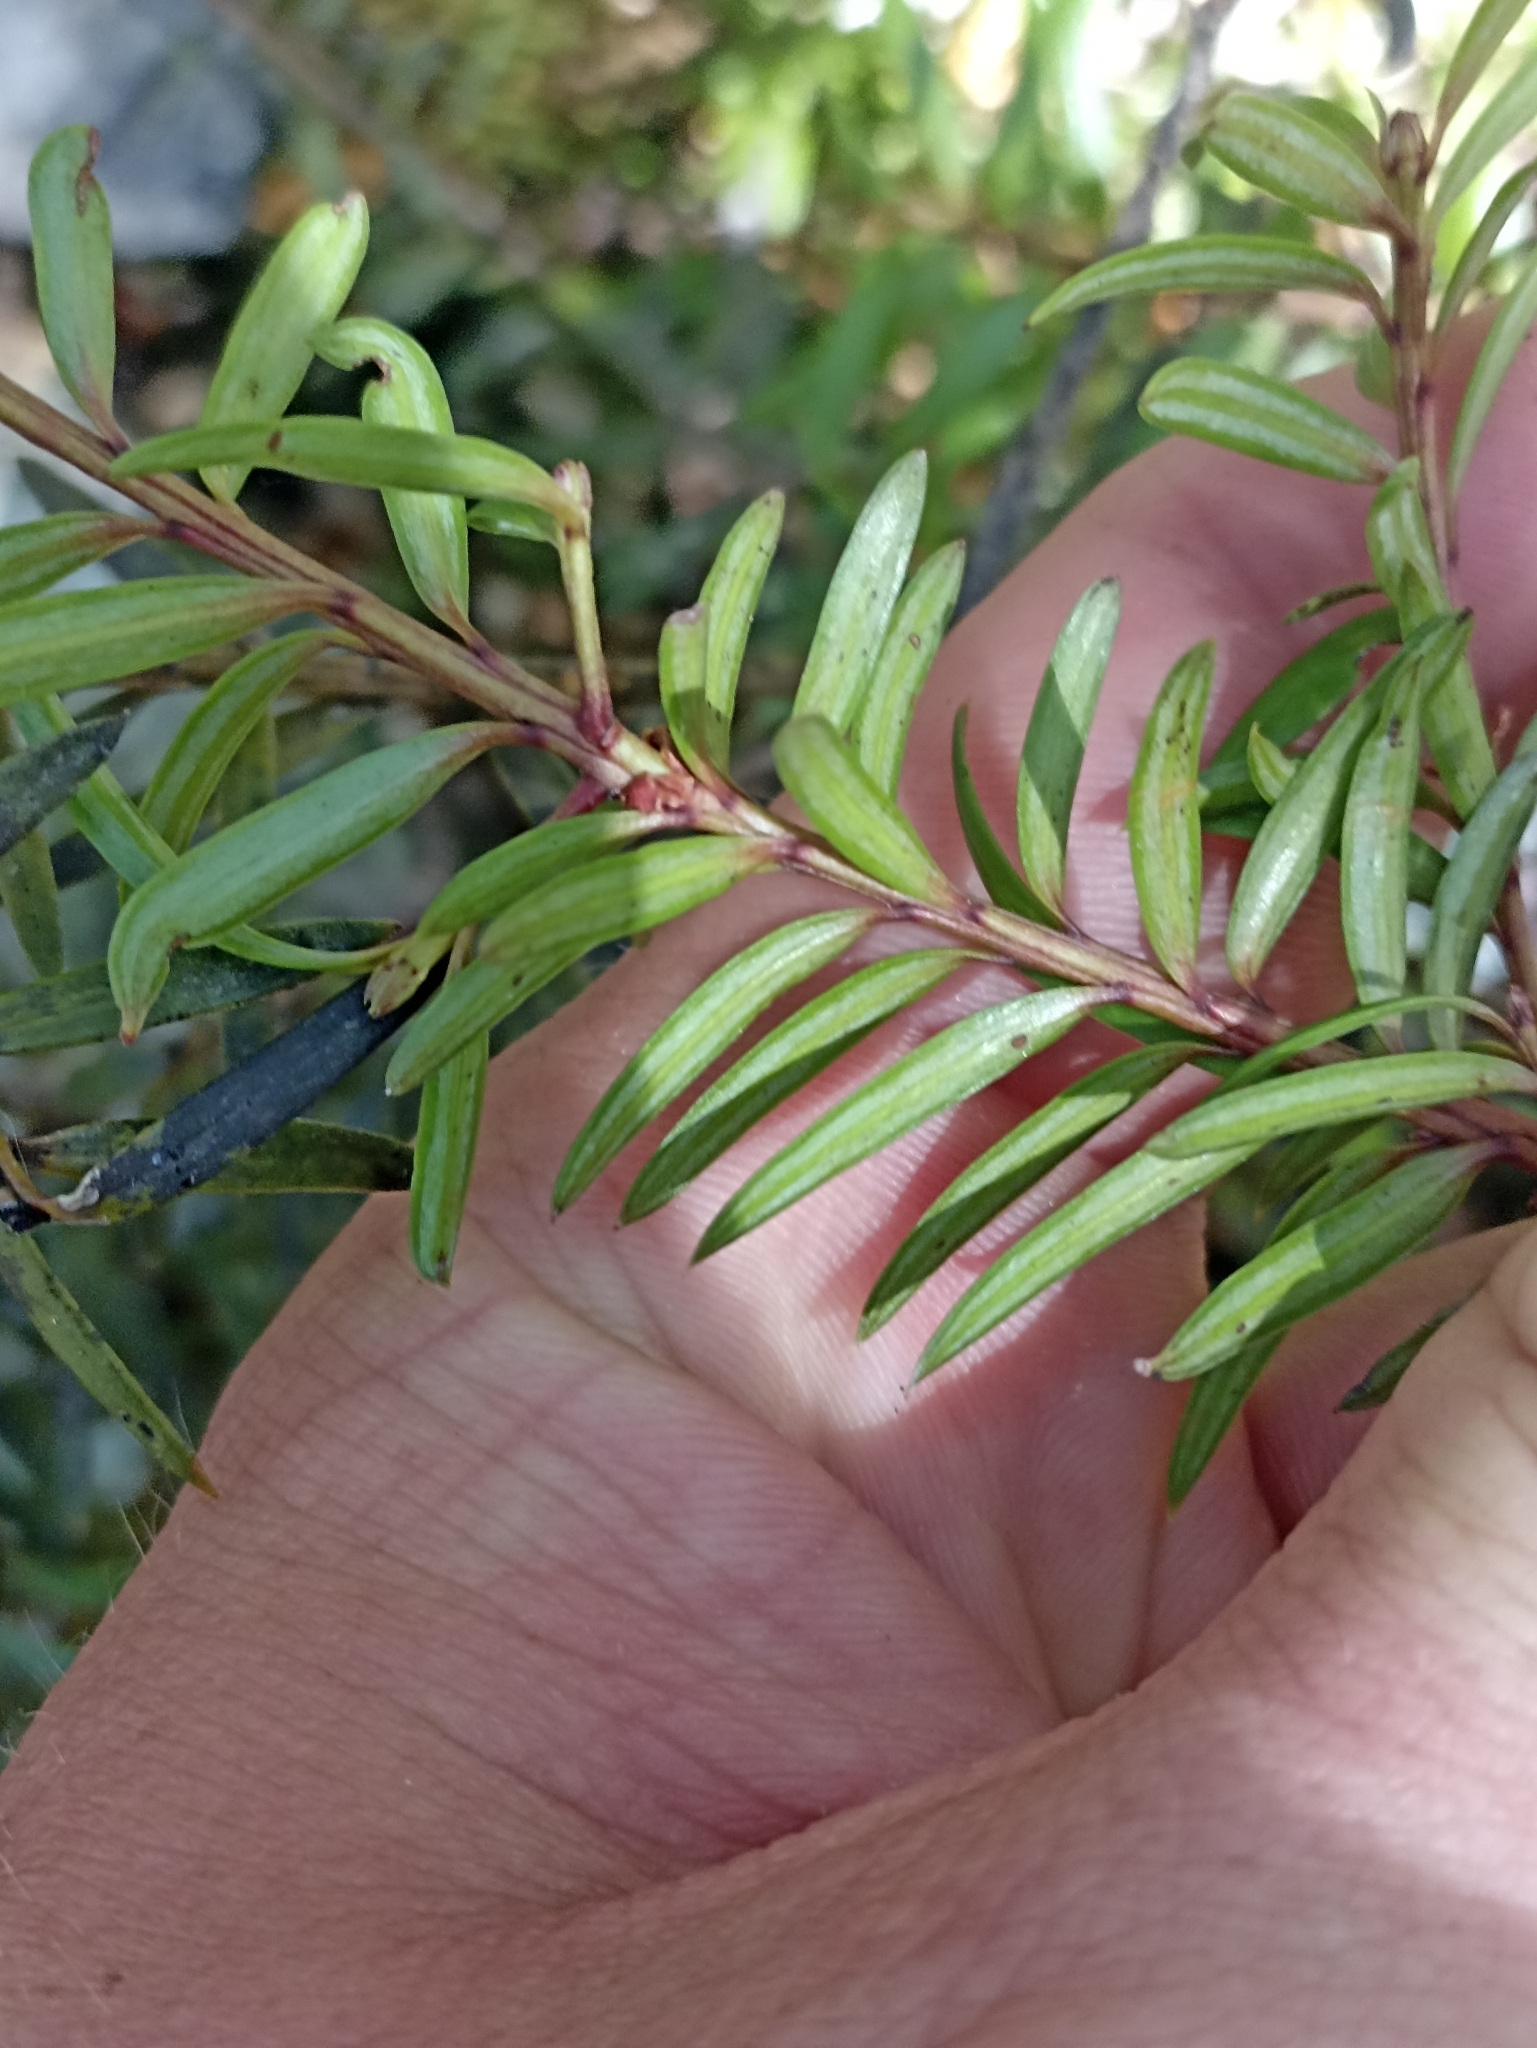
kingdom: Plantae
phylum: Tracheophyta
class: Pinopsida
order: Pinales
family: Podocarpaceae
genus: Podocarpus
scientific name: Podocarpus laetus
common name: Hall's totara
